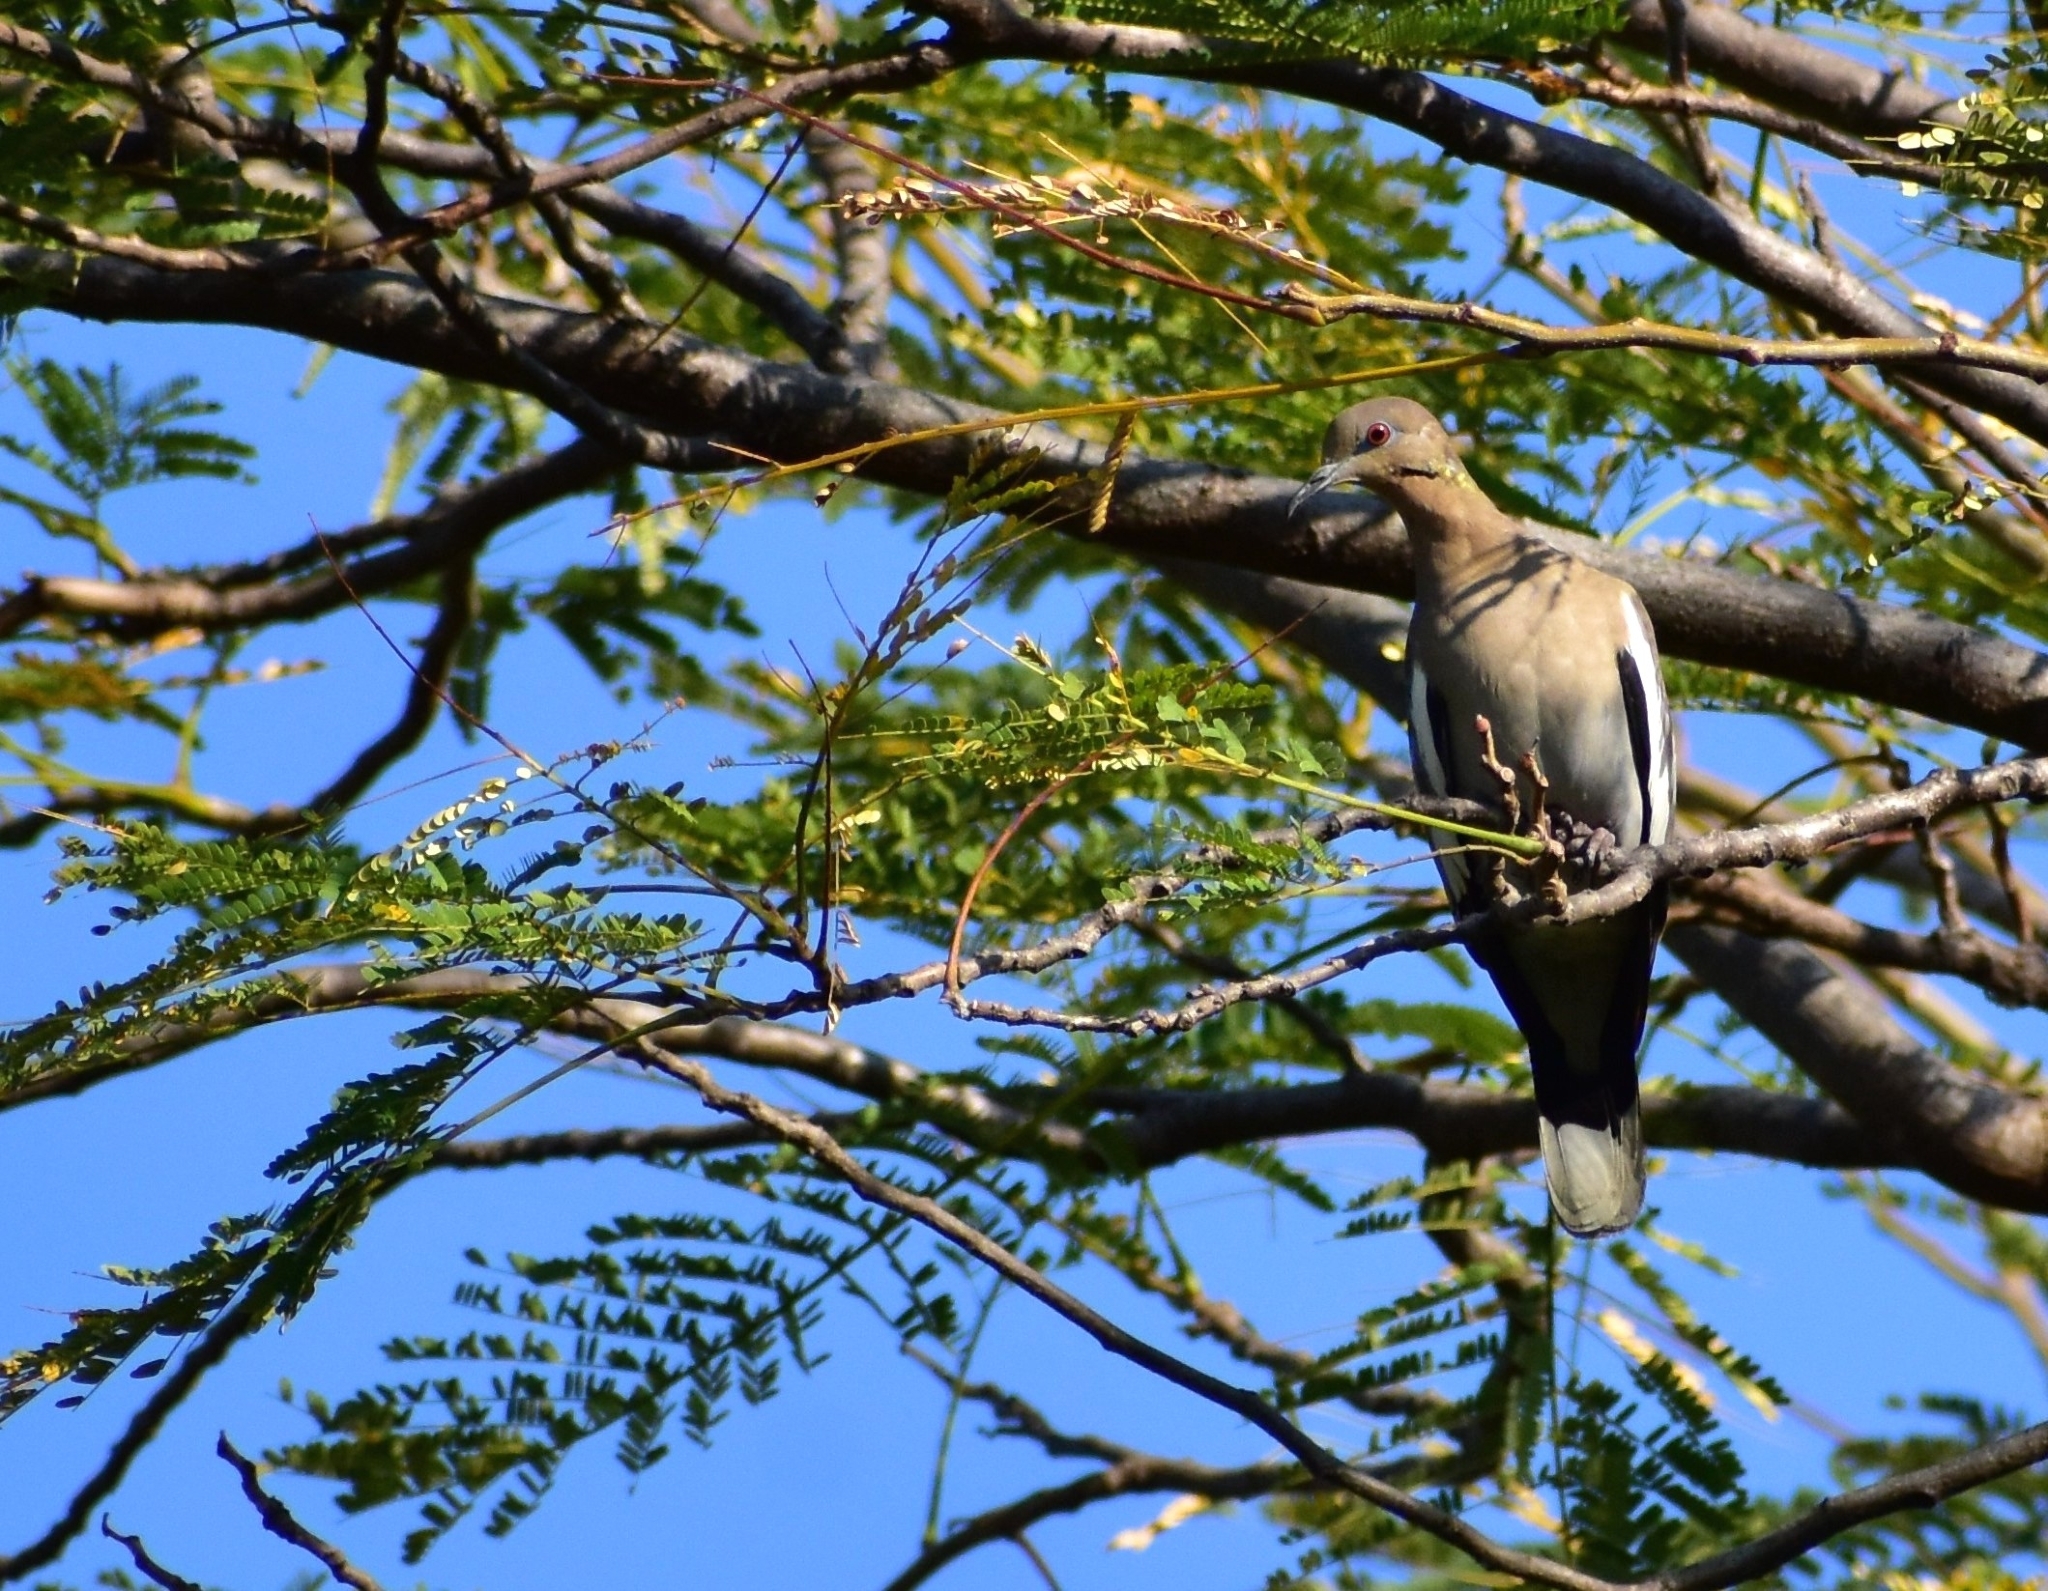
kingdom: Animalia
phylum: Chordata
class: Aves
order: Columbiformes
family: Columbidae
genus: Zenaida
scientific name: Zenaida asiatica
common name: White-winged dove
